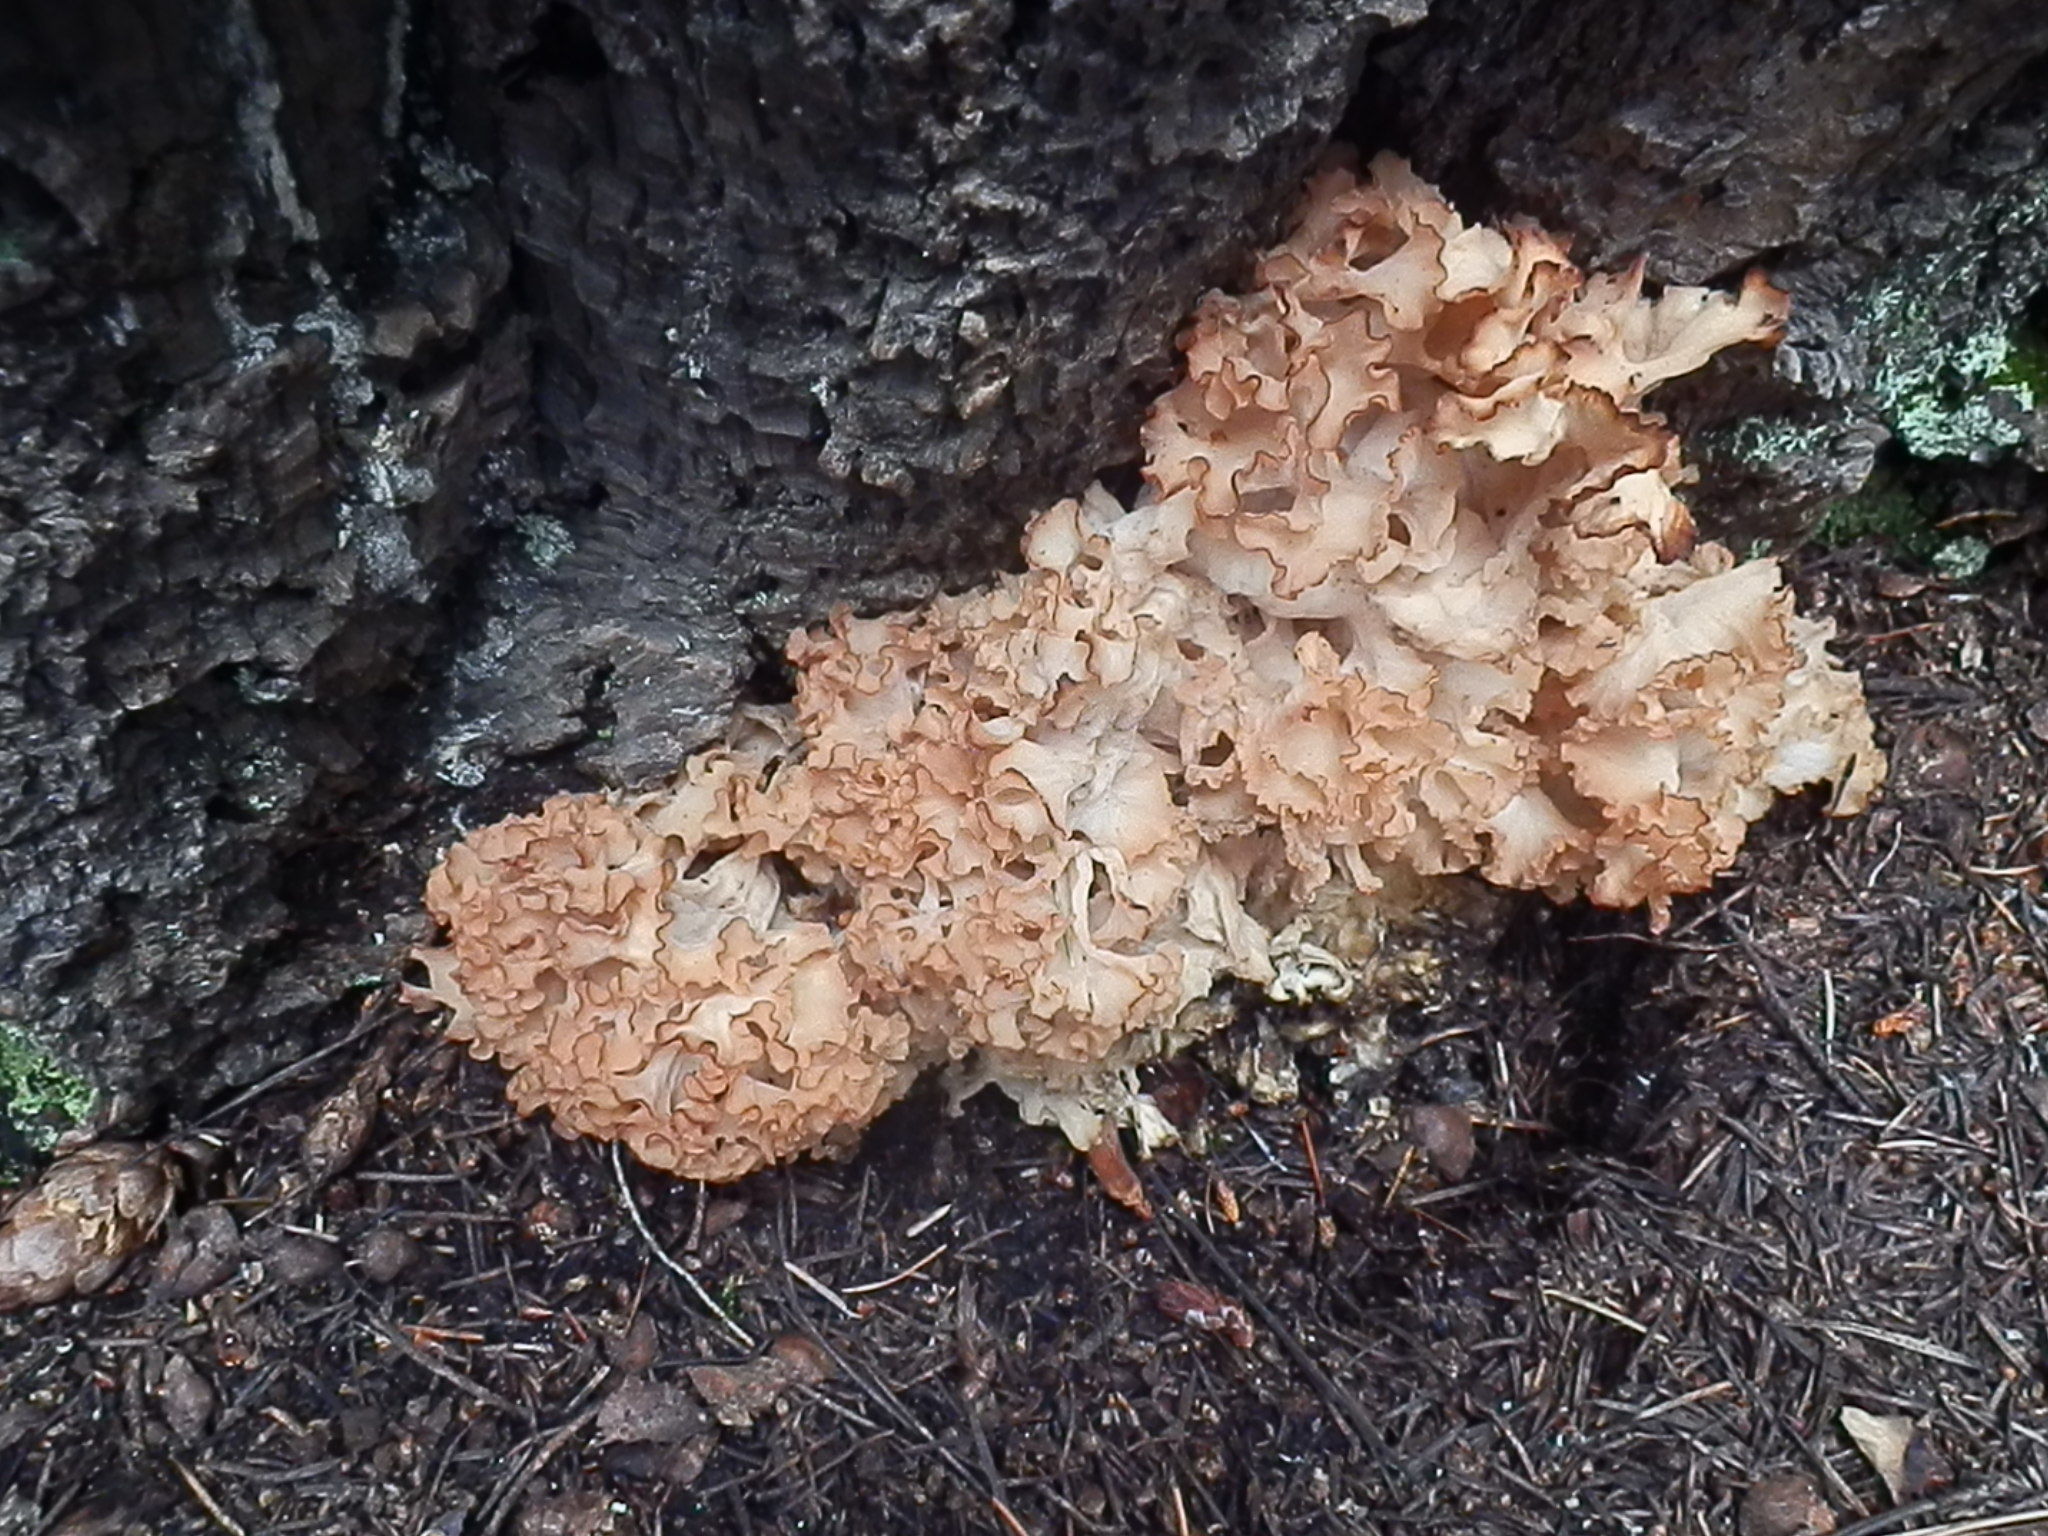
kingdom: Fungi
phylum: Basidiomycota
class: Agaricomycetes
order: Polyporales
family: Sparassidaceae
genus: Sparassis
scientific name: Sparassis americana
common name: American cauliflower mushroom
